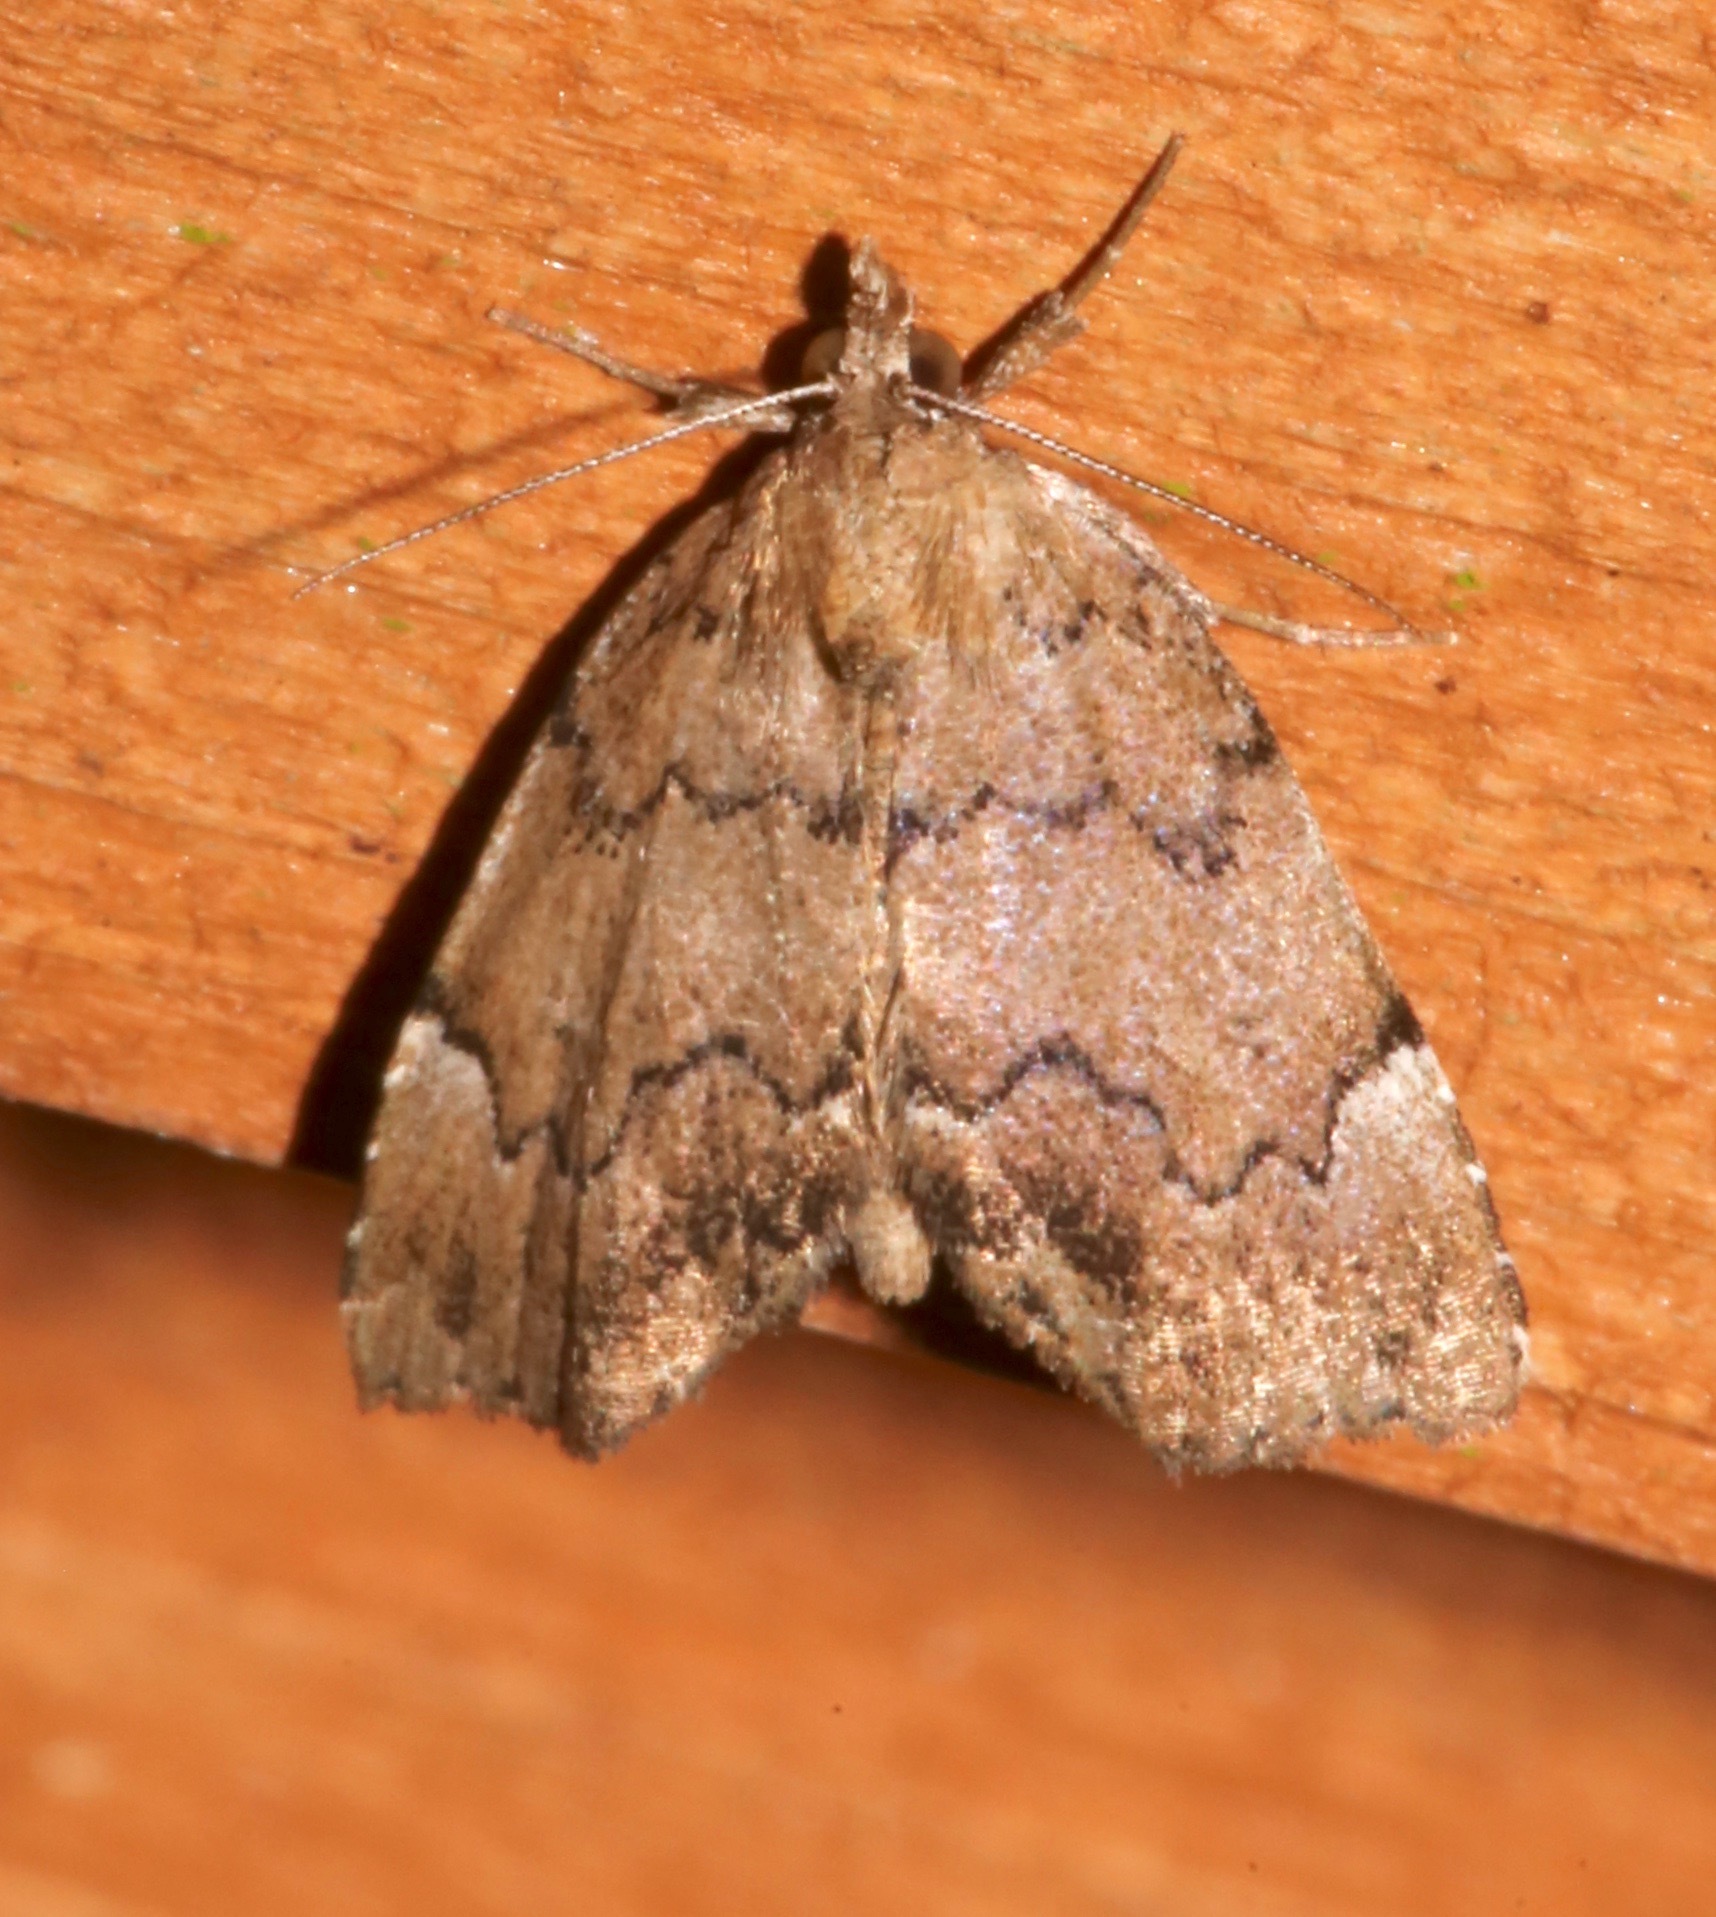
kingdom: Animalia
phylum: Arthropoda
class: Insecta
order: Lepidoptera
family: Erebidae
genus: Cutina
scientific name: Cutina aluticolor
